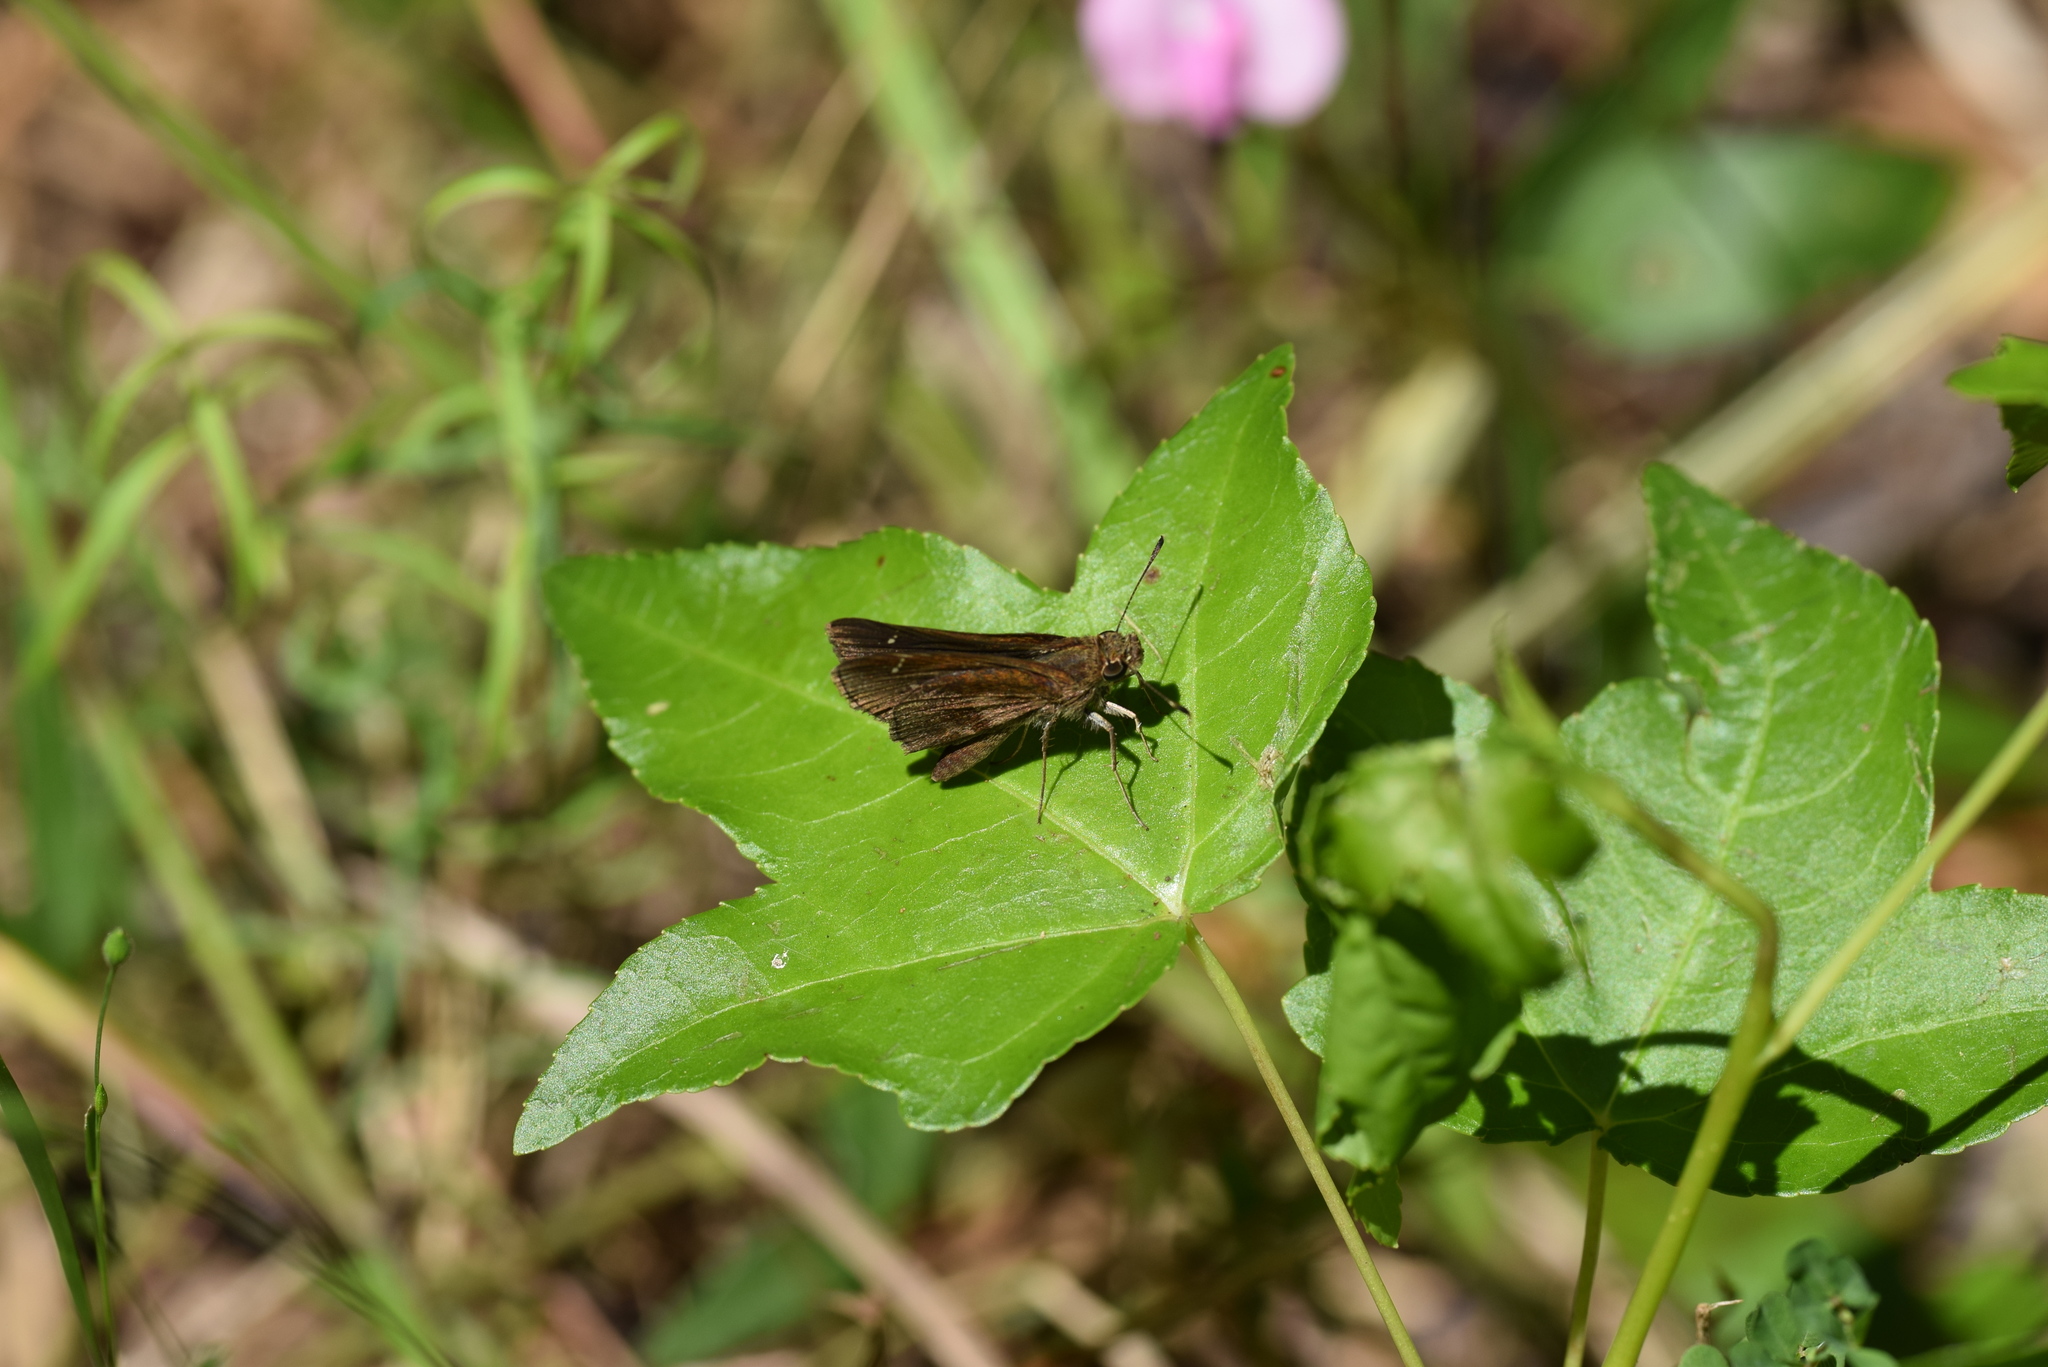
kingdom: Animalia
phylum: Arthropoda
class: Insecta
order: Lepidoptera
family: Hesperiidae
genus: Lerema
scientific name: Lerema accius
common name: Clouded skipper
